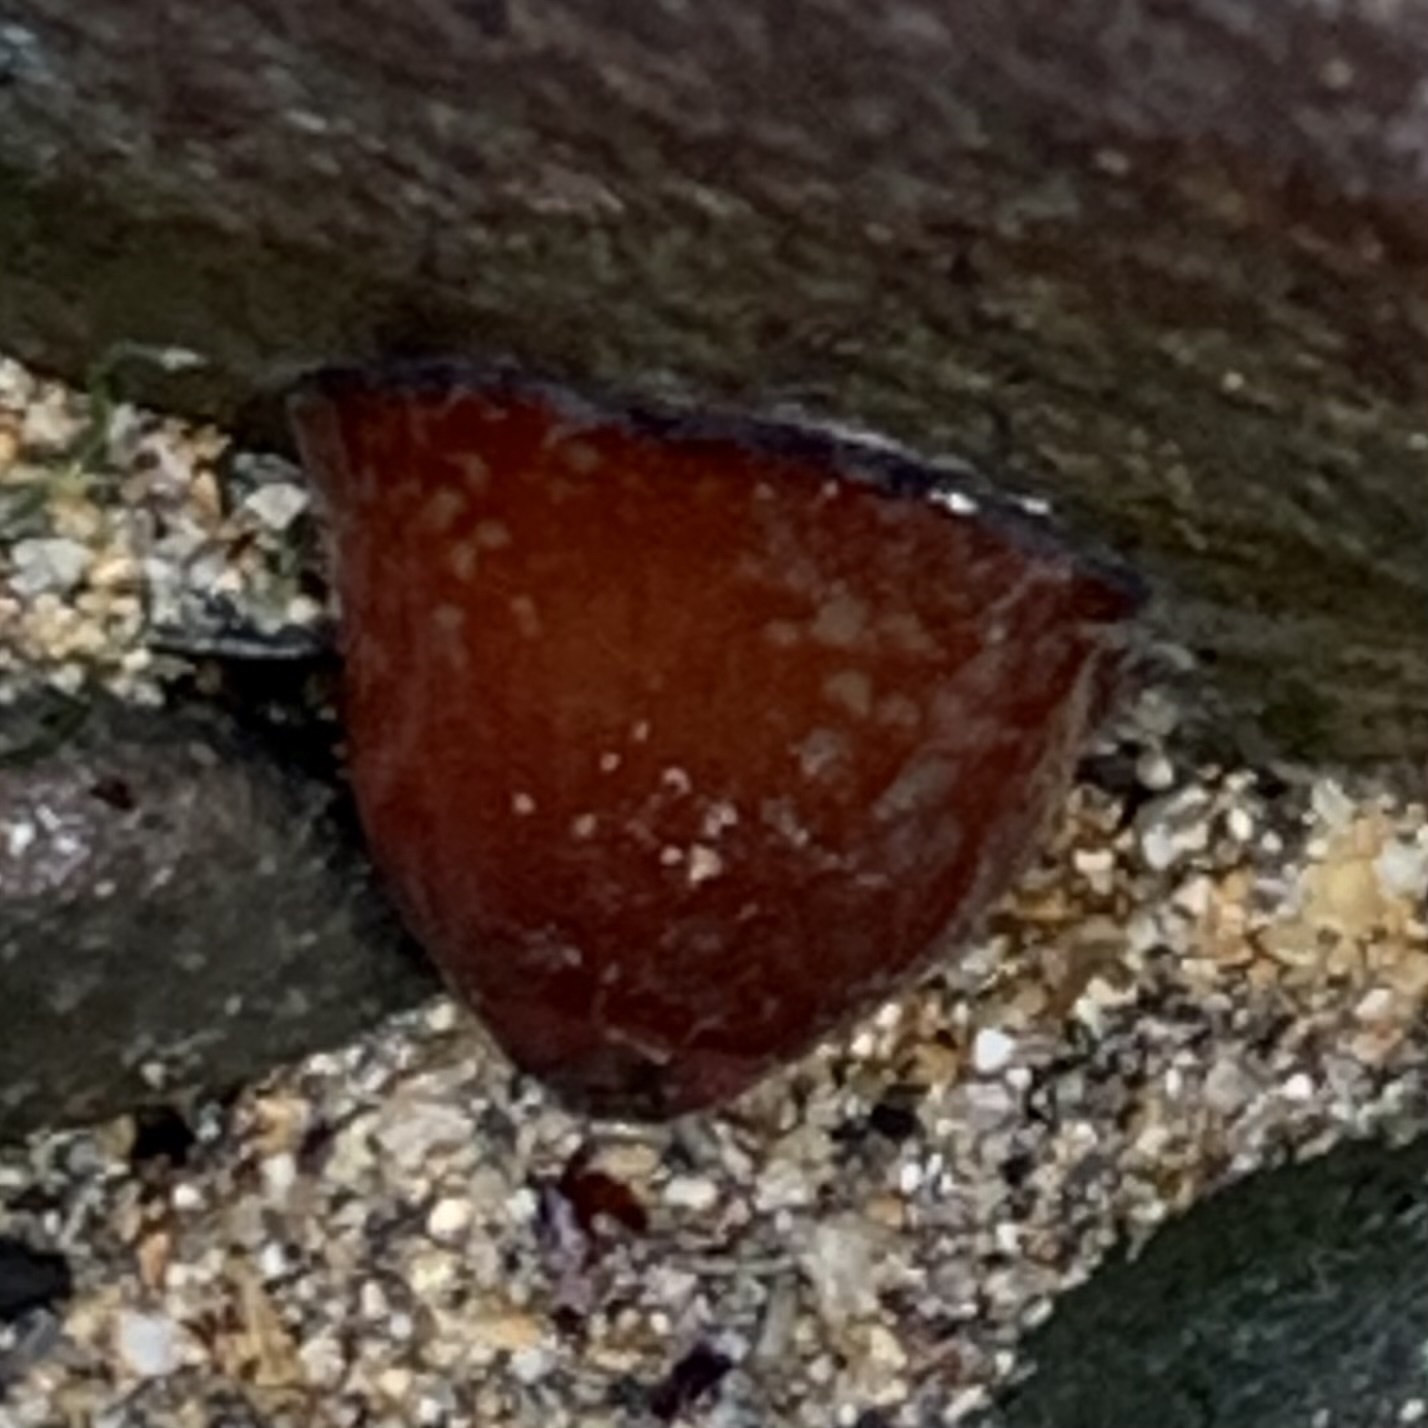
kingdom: Animalia
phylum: Cnidaria
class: Anthozoa
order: Actiniaria
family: Actiniidae
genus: Actinia
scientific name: Actinia equina
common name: Beadlet anemone
